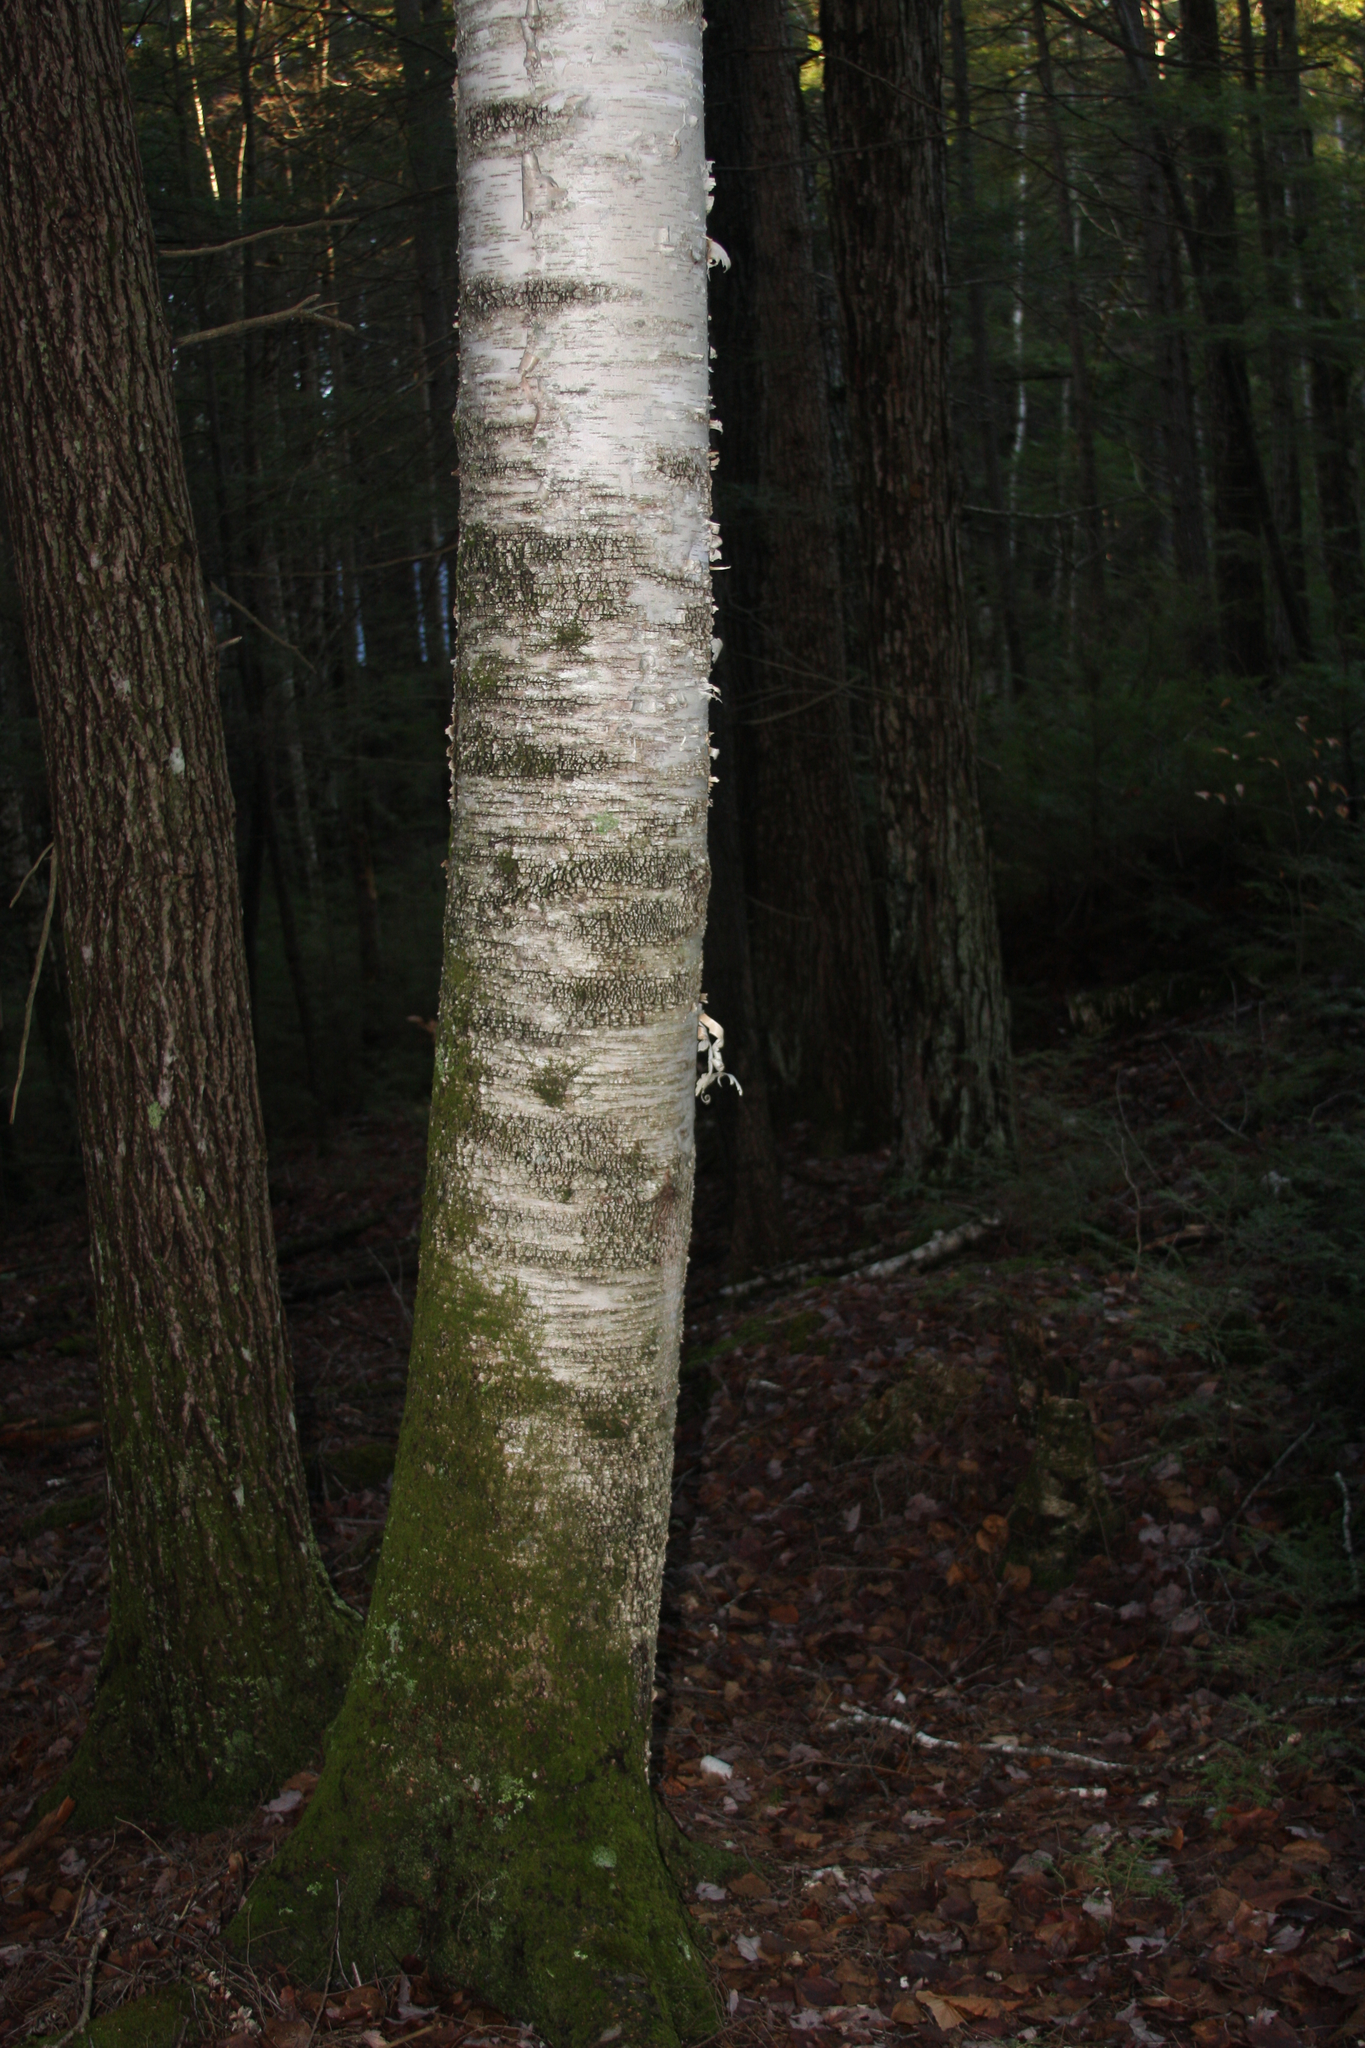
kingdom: Plantae
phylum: Tracheophyta
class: Magnoliopsida
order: Fagales
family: Betulaceae
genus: Betula
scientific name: Betula papyrifera
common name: Paper birch
